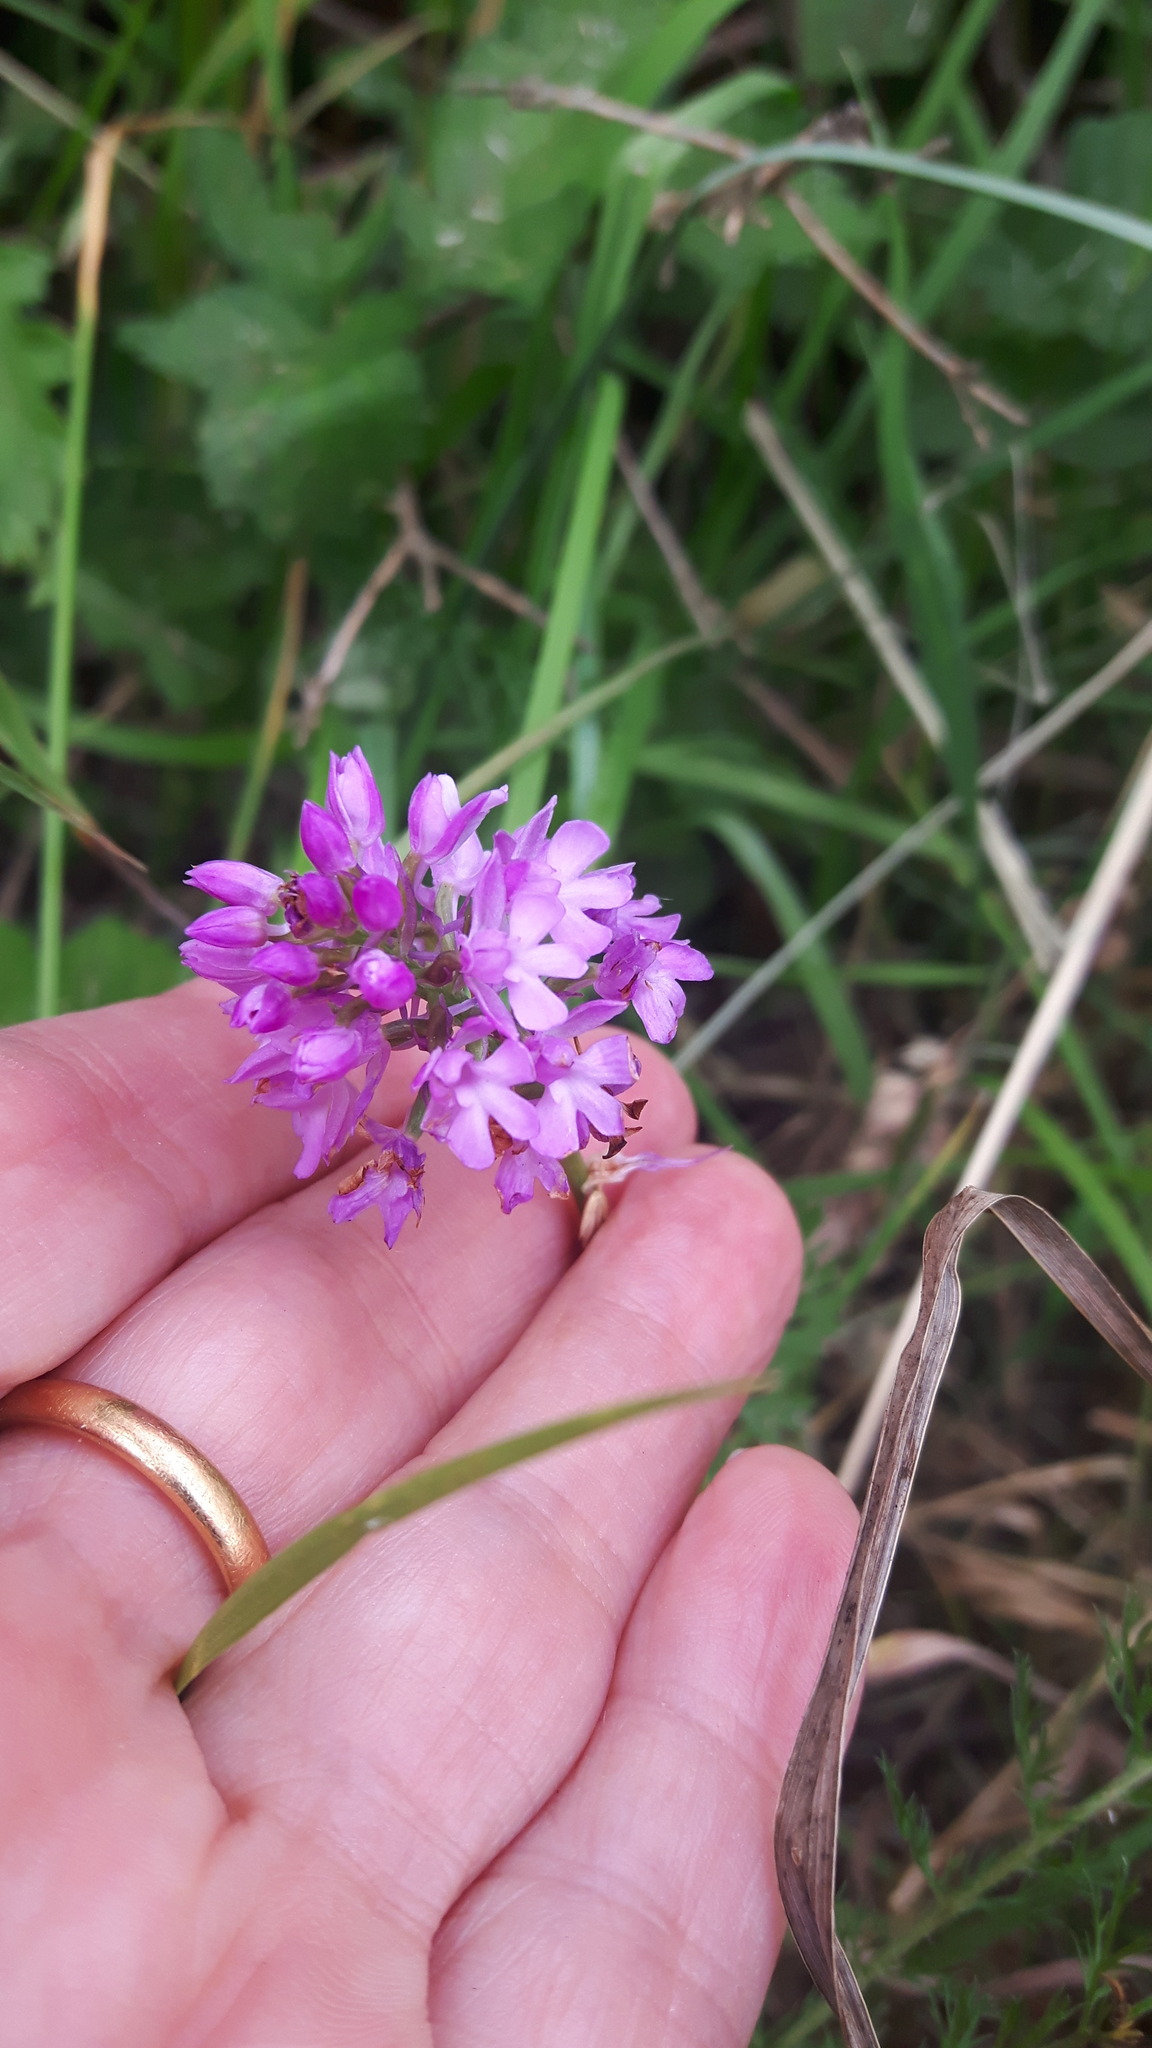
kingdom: Plantae
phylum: Tracheophyta
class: Liliopsida
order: Asparagales
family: Orchidaceae
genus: Anacamptis
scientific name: Anacamptis pyramidalis
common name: Pyramidal orchid
